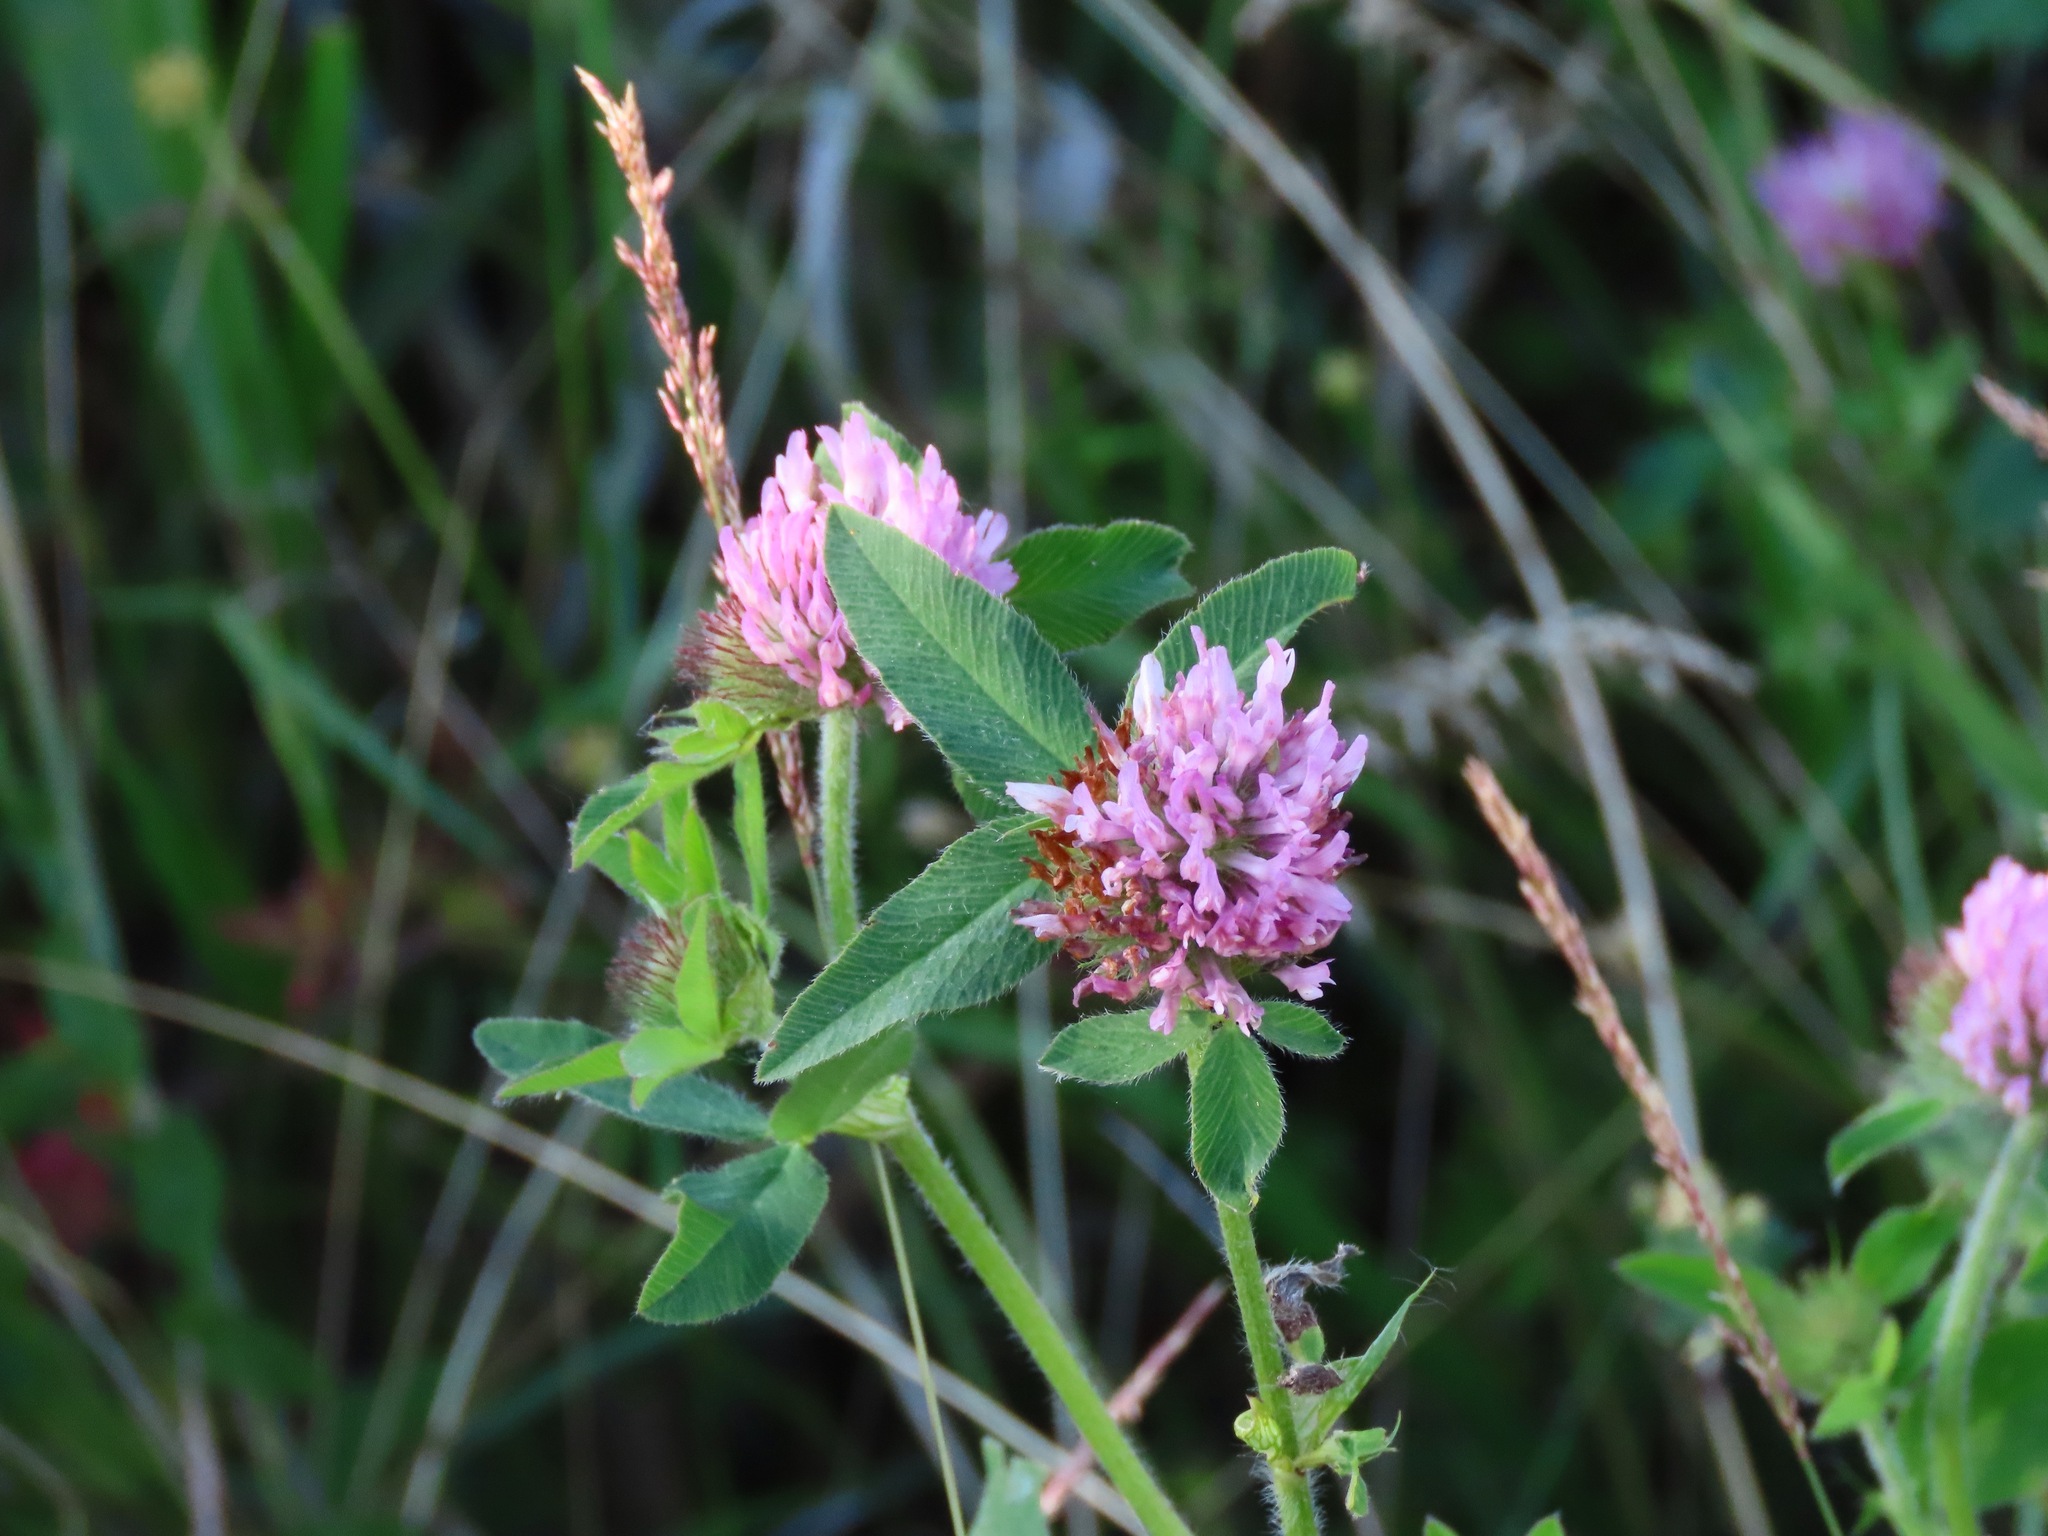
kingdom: Plantae
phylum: Tracheophyta
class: Magnoliopsida
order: Fabales
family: Fabaceae
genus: Trifolium
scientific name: Trifolium pratense
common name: Red clover
